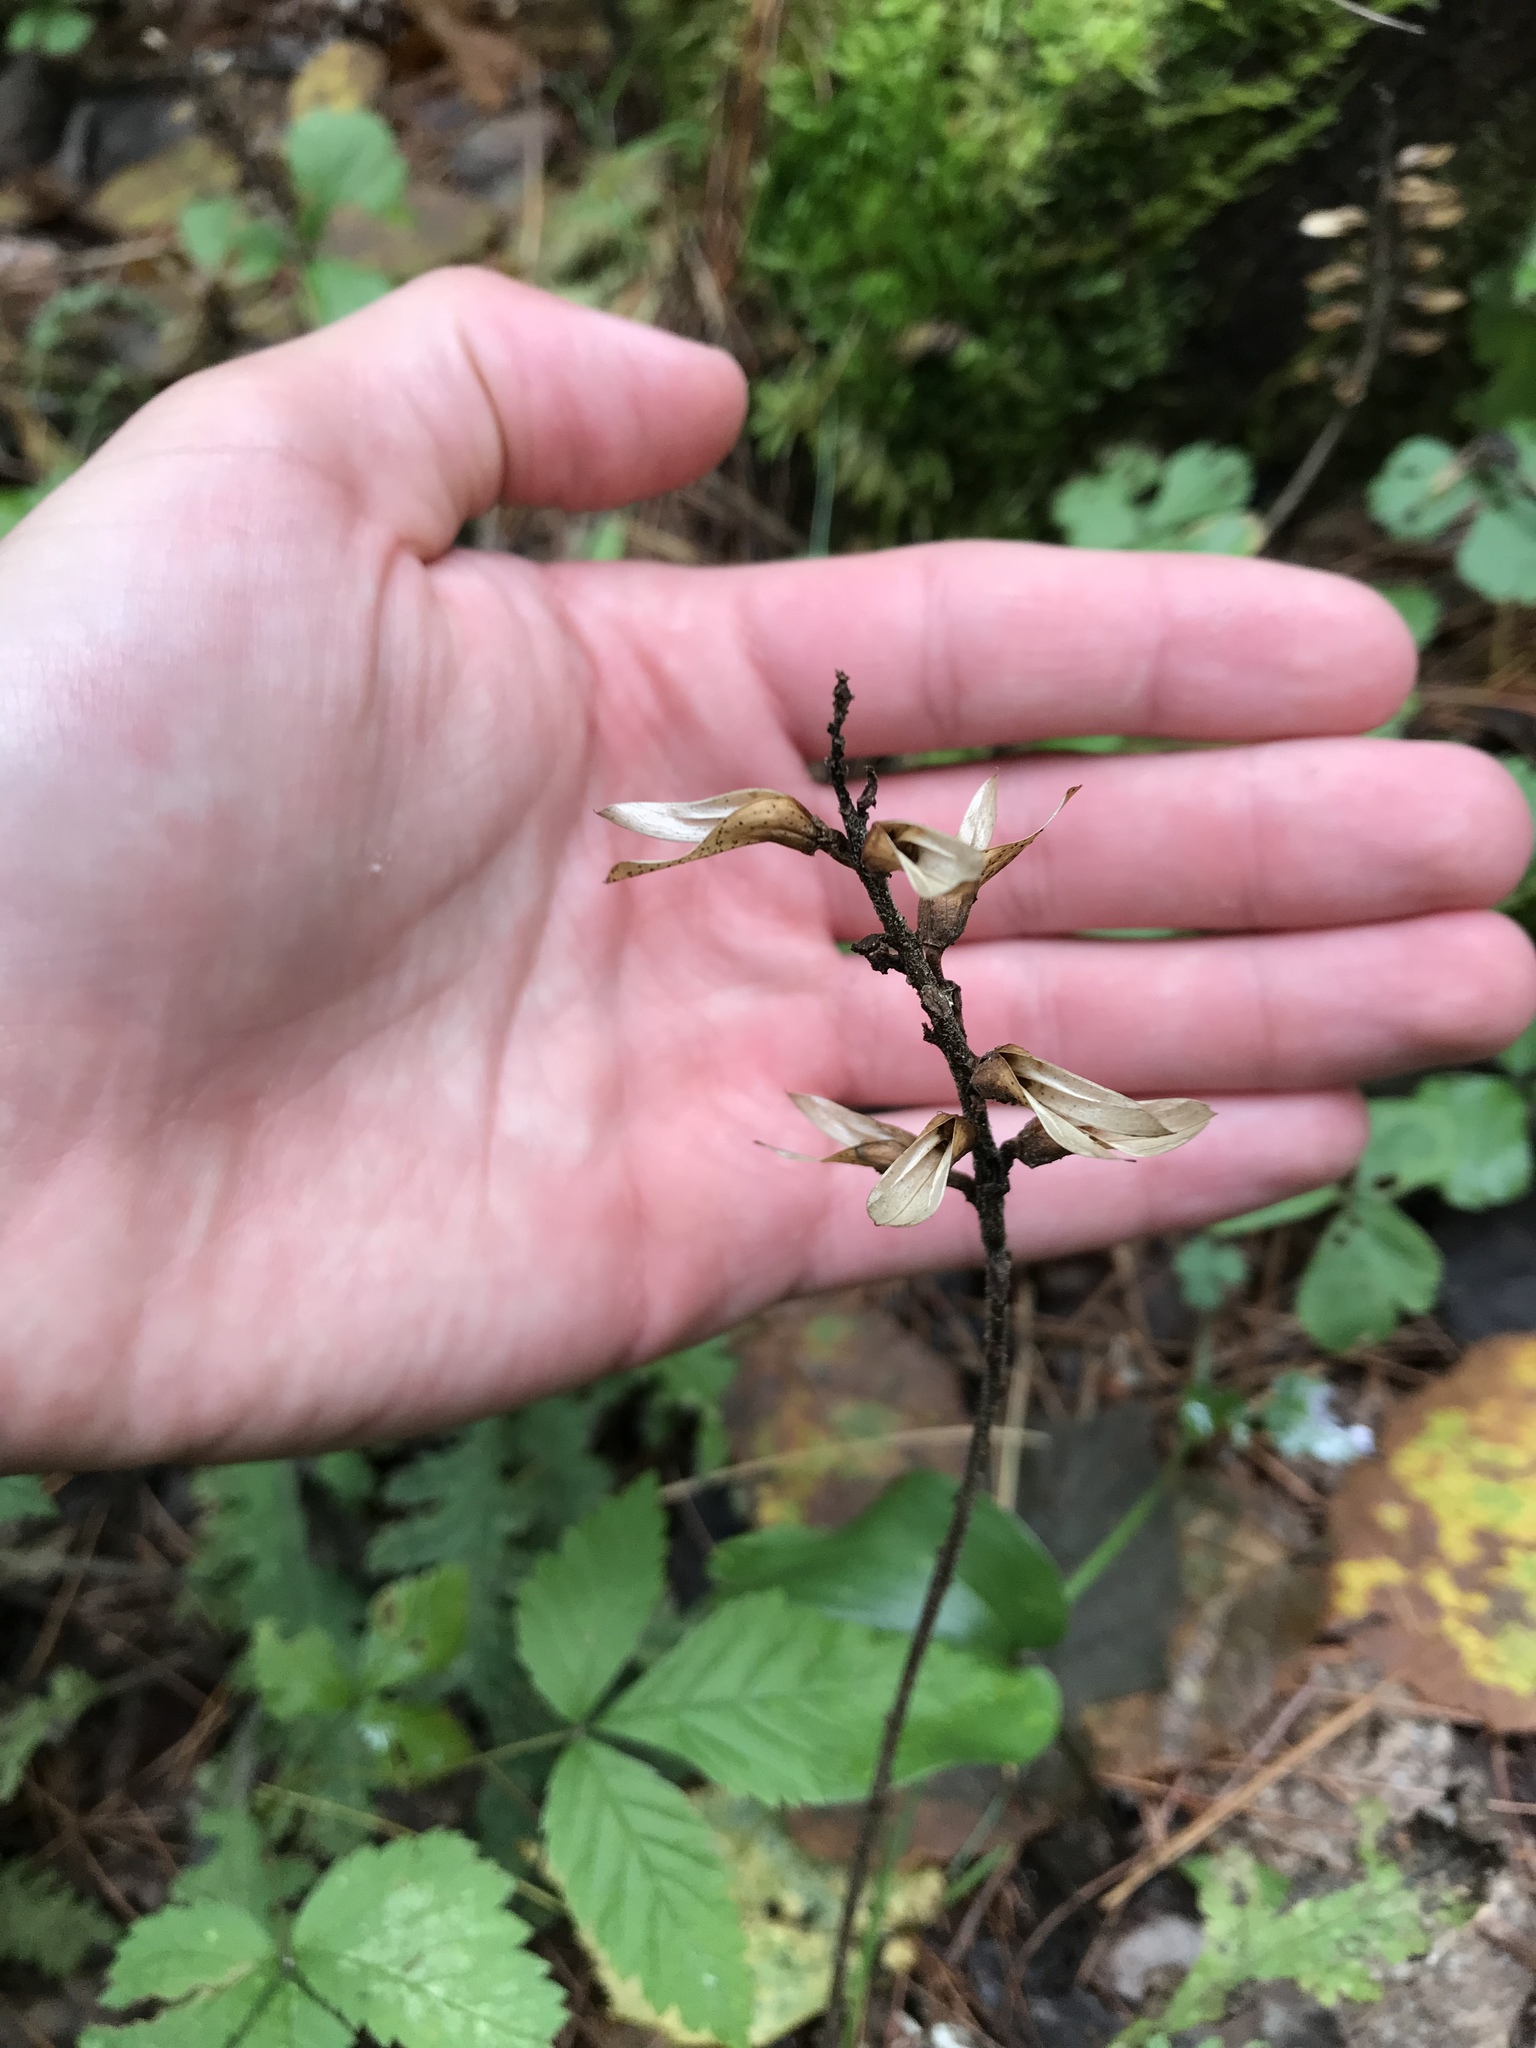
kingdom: Plantae
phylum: Tracheophyta
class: Magnoliopsida
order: Lamiales
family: Orobanchaceae
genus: Pedicularis
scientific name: Pedicularis canadensis
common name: Early lousewort
